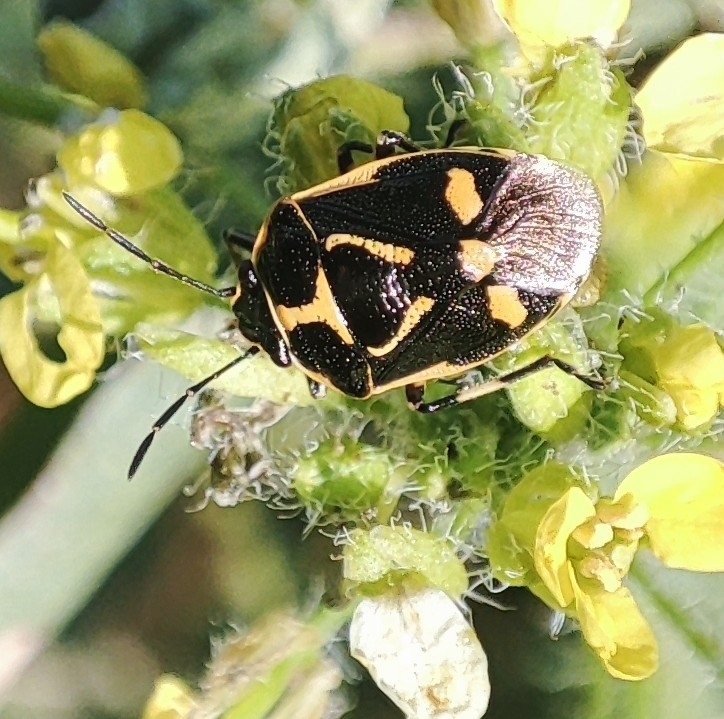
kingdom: Animalia
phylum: Arthropoda
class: Insecta
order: Hemiptera
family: Pentatomidae
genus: Eurydema
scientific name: Eurydema oleracea
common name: Cabbage bug
